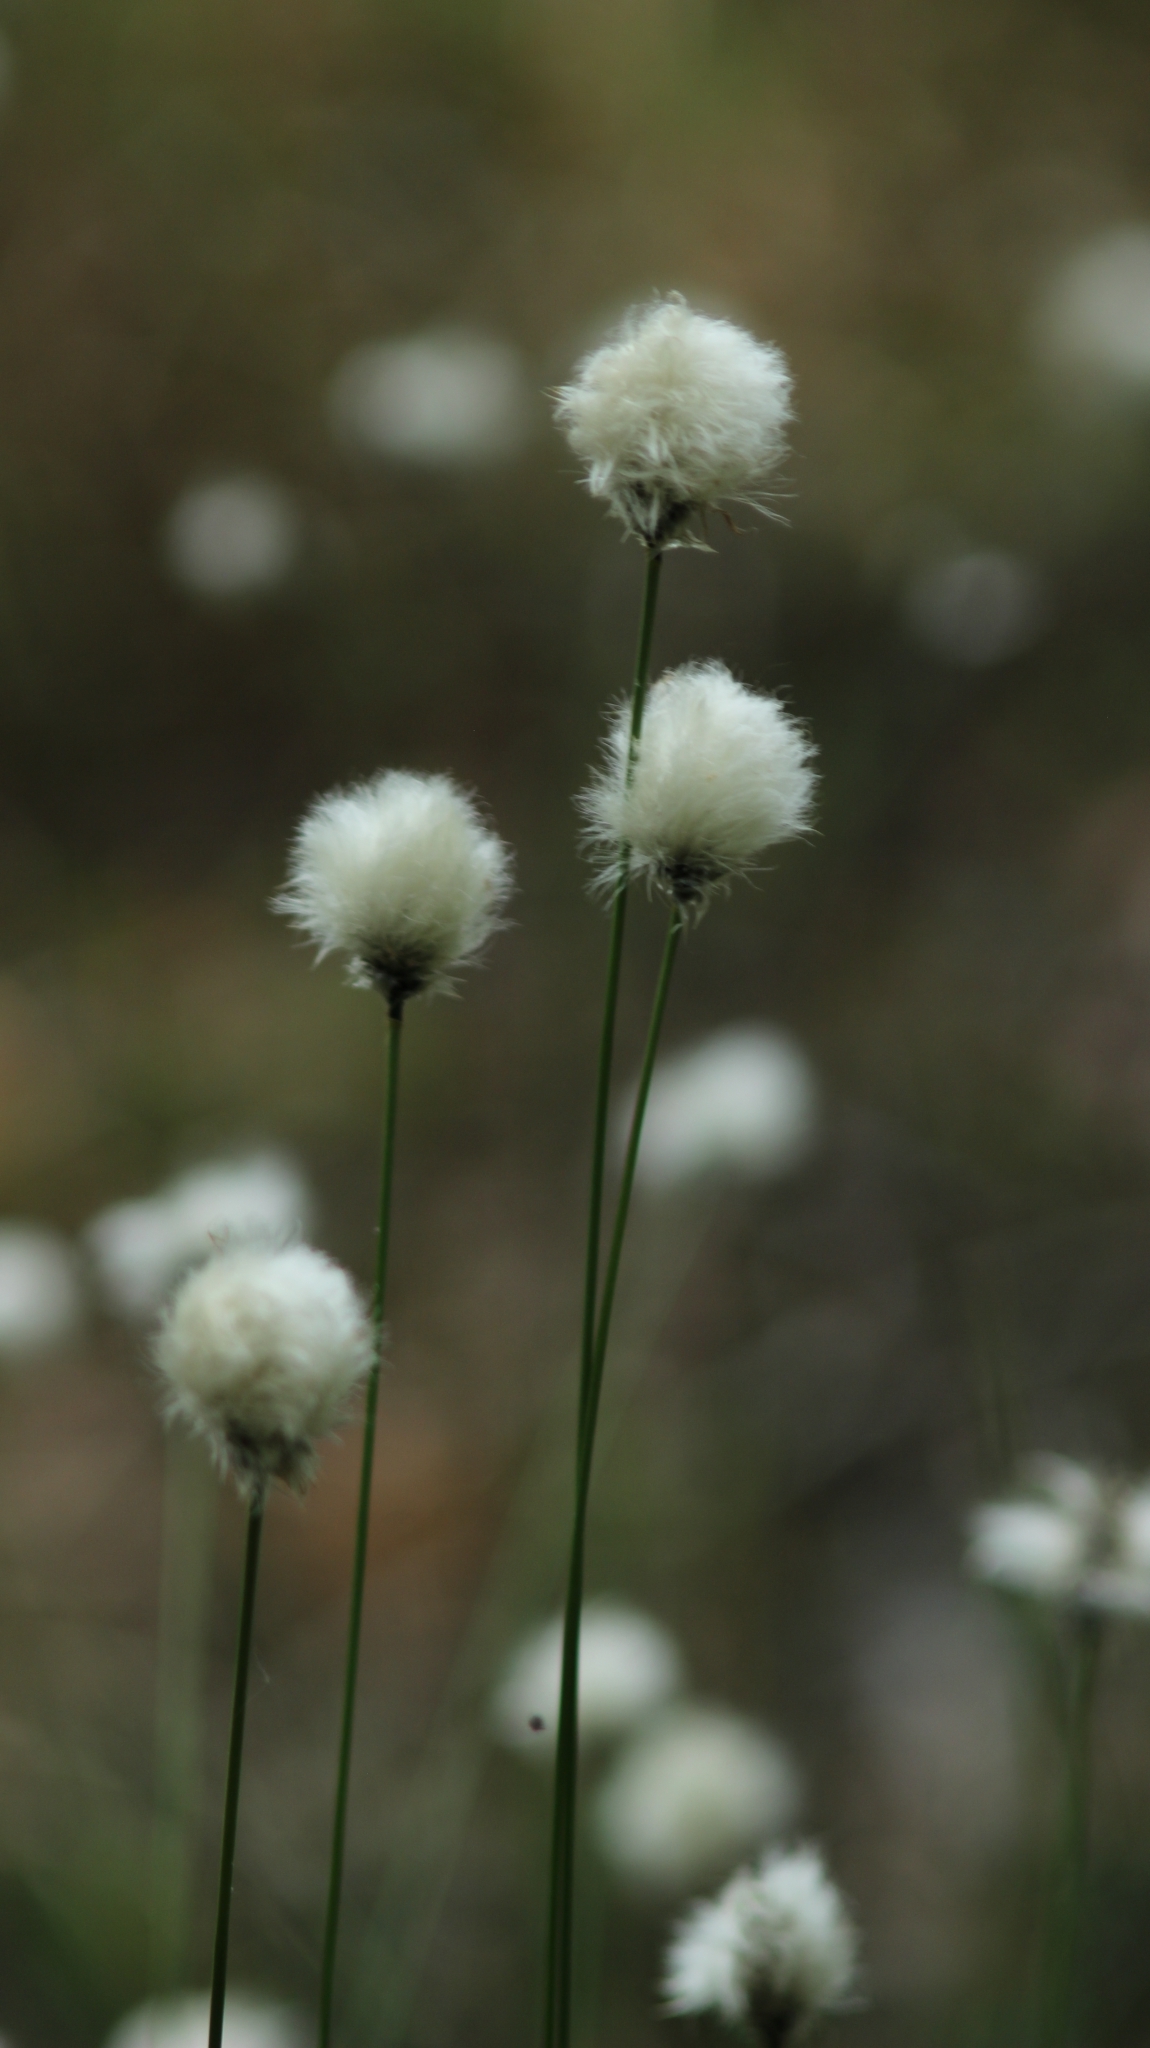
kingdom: Plantae
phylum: Tracheophyta
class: Liliopsida
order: Poales
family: Cyperaceae
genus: Eriophorum
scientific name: Eriophorum vaginatum
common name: Hare's-tail cottongrass
